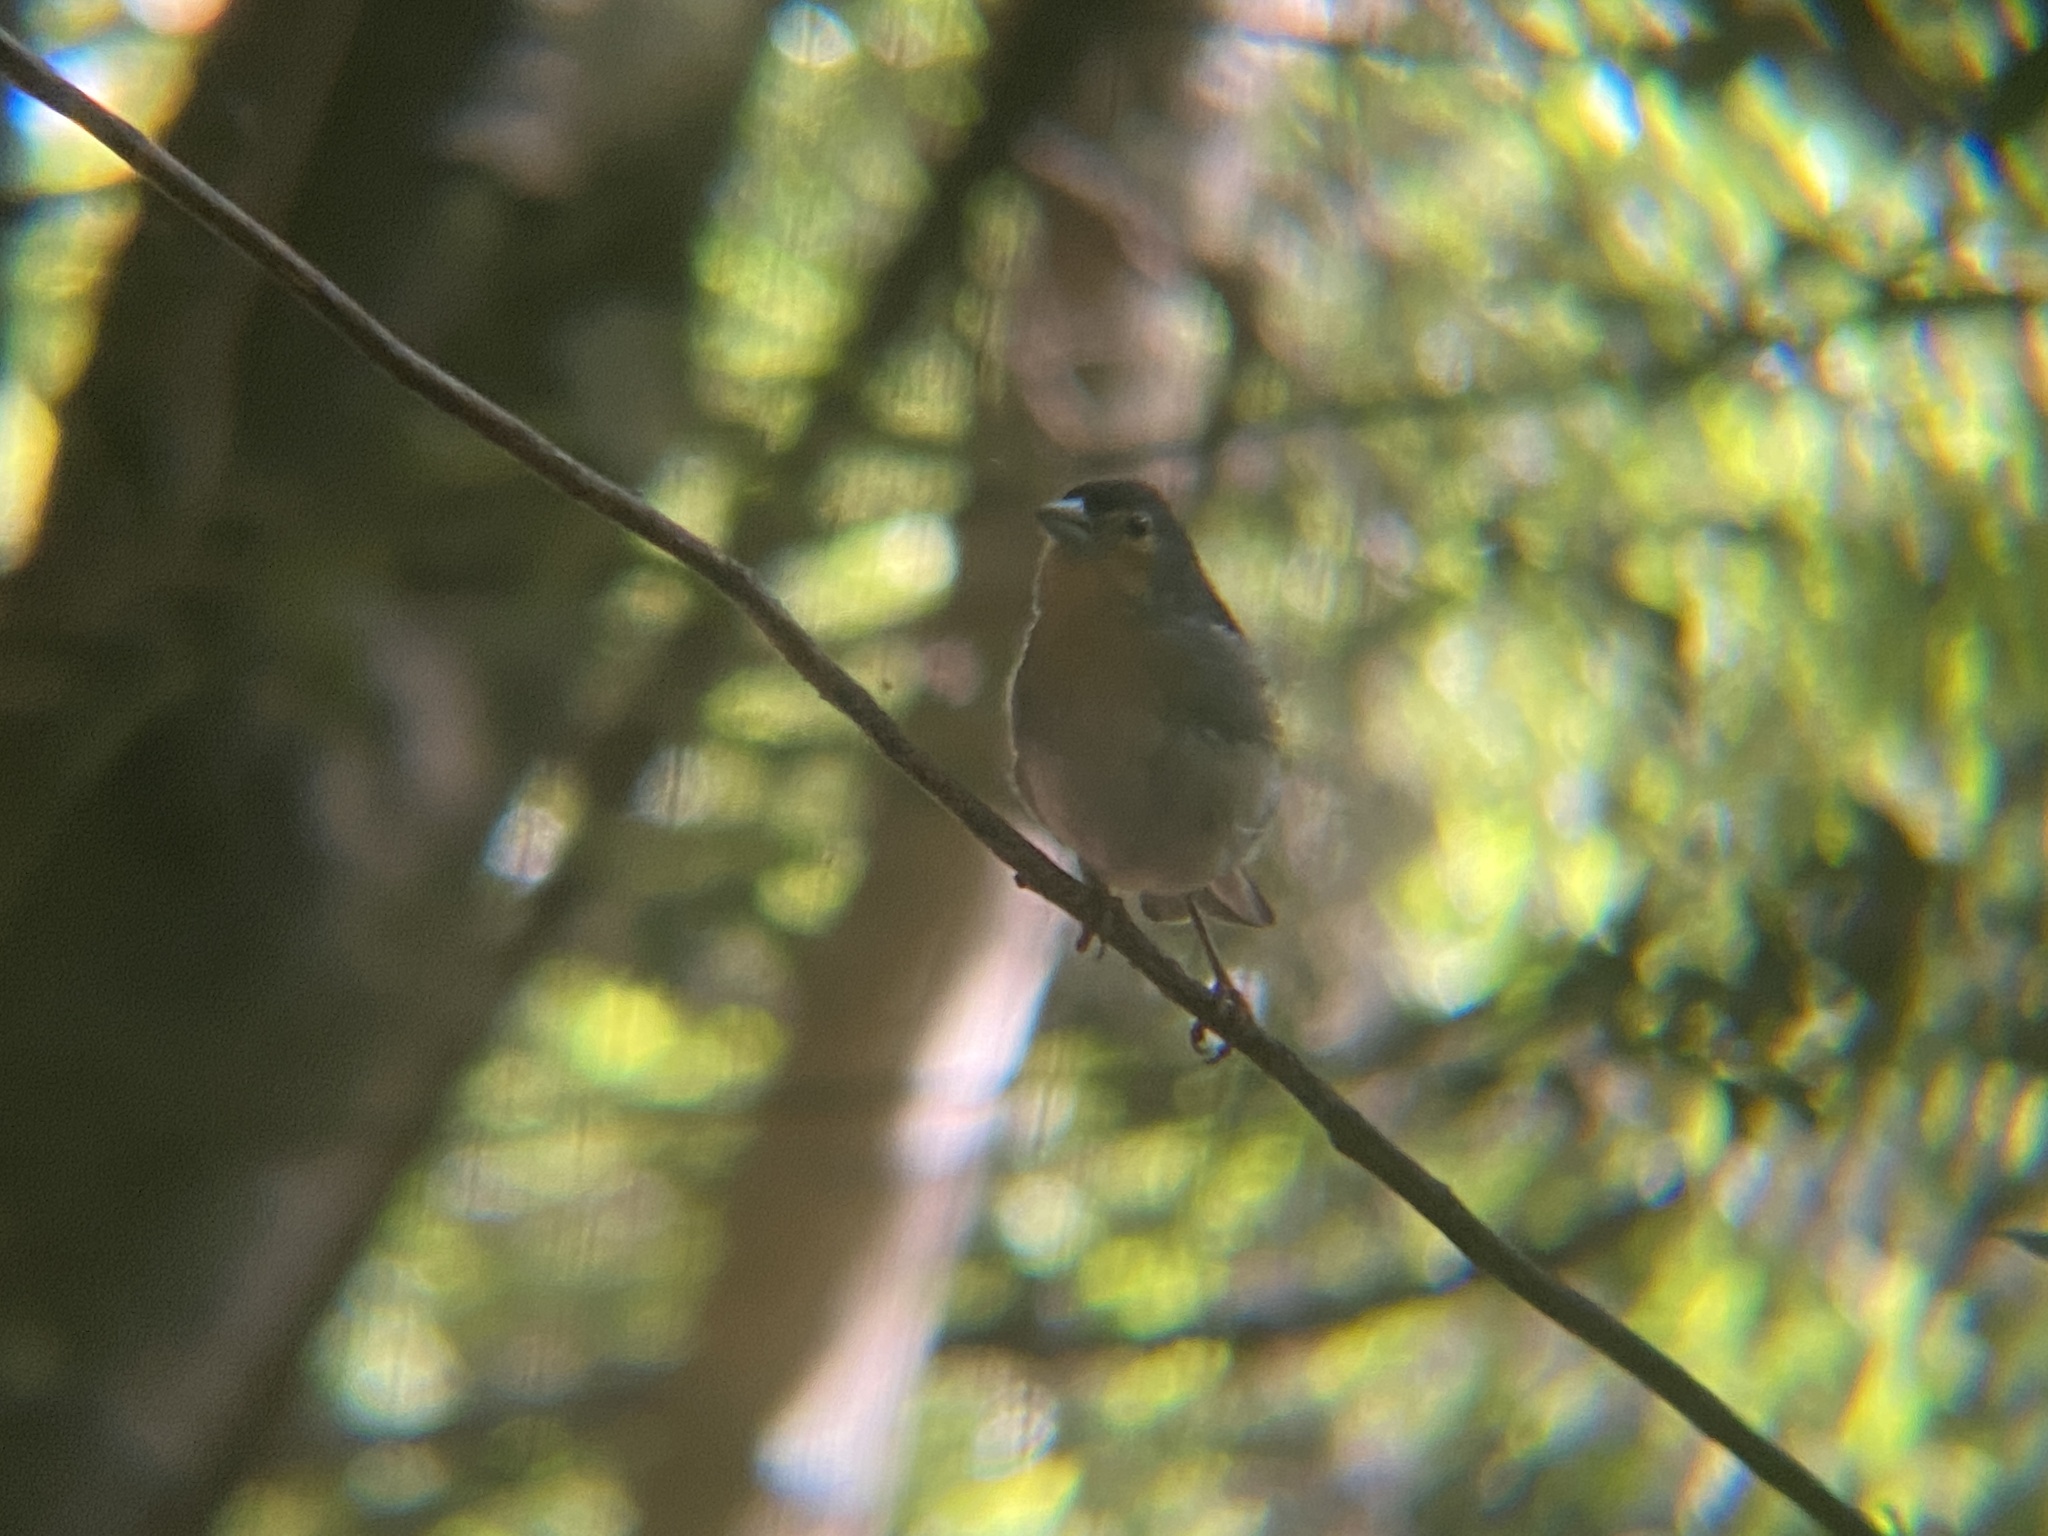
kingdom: Animalia
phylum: Chordata
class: Aves
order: Passeriformes
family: Fringillidae
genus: Fringilla
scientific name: Fringilla canariensis
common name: Canary islands chaffinch
